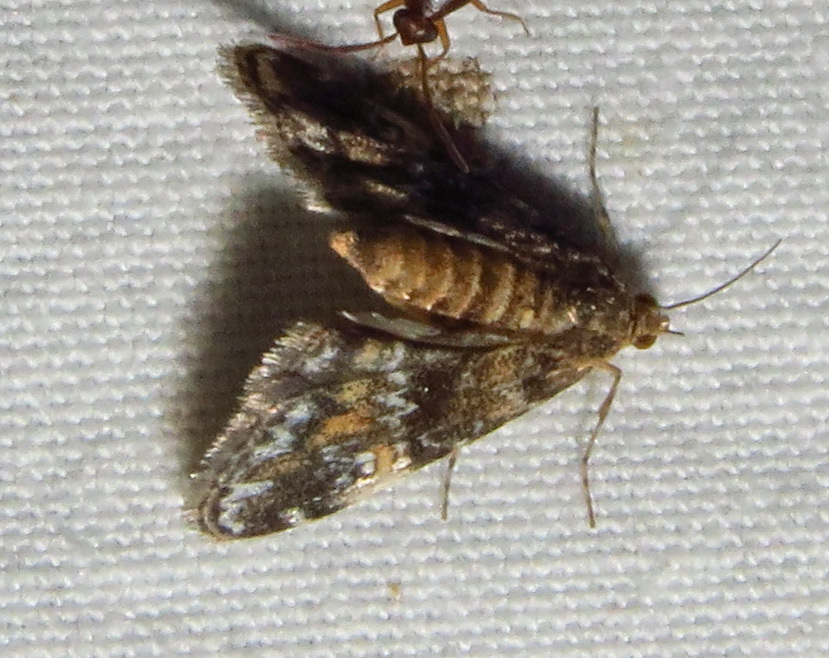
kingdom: Animalia
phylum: Arthropoda
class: Insecta
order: Lepidoptera
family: Crambidae
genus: Elophila
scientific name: Elophila obliteralis
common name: Waterlily leafcutter moth
